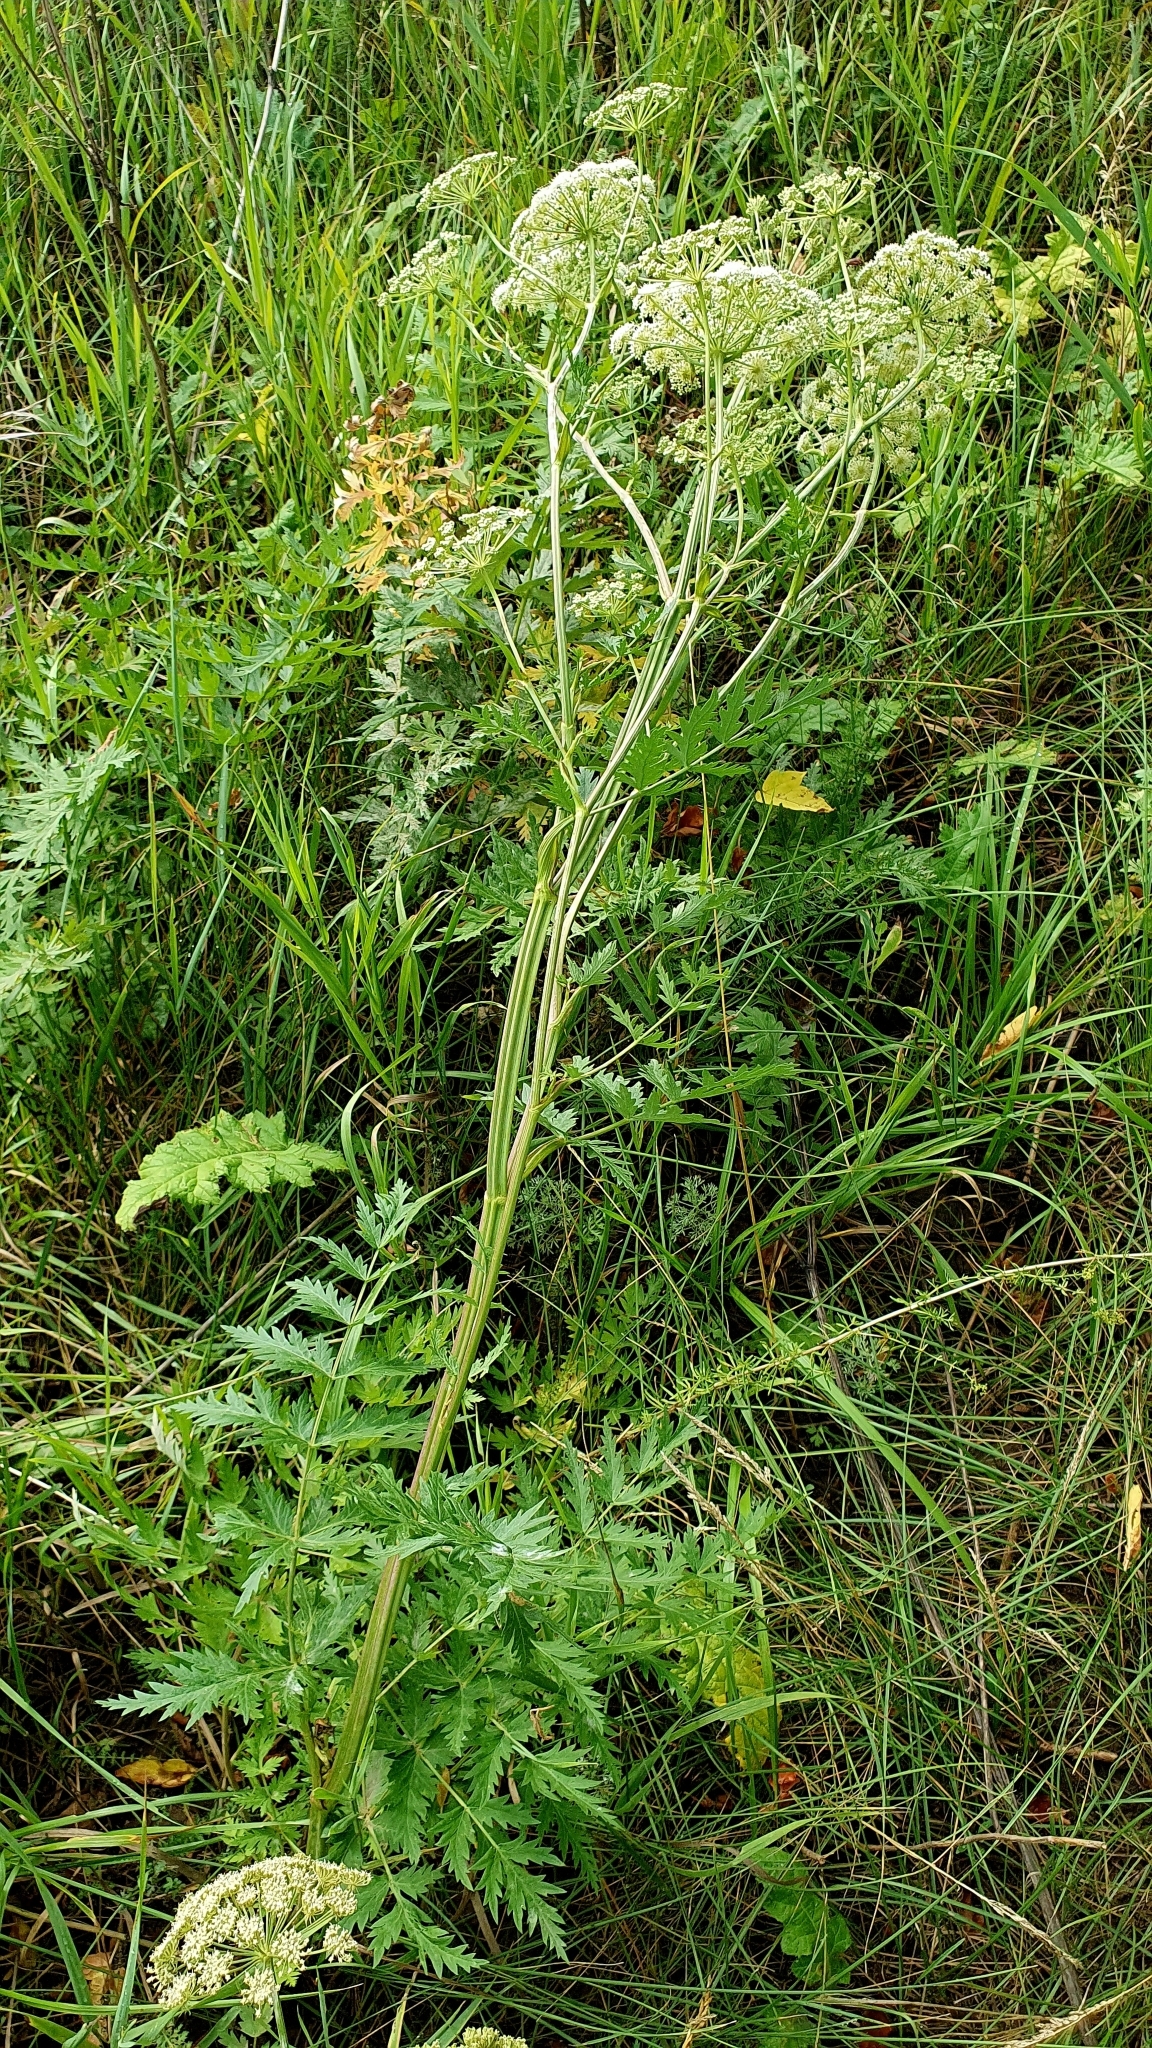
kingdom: Plantae
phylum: Tracheophyta
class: Magnoliopsida
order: Apiales
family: Apiaceae
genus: Seseli
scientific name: Seseli libanotis
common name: Mooncarrot
